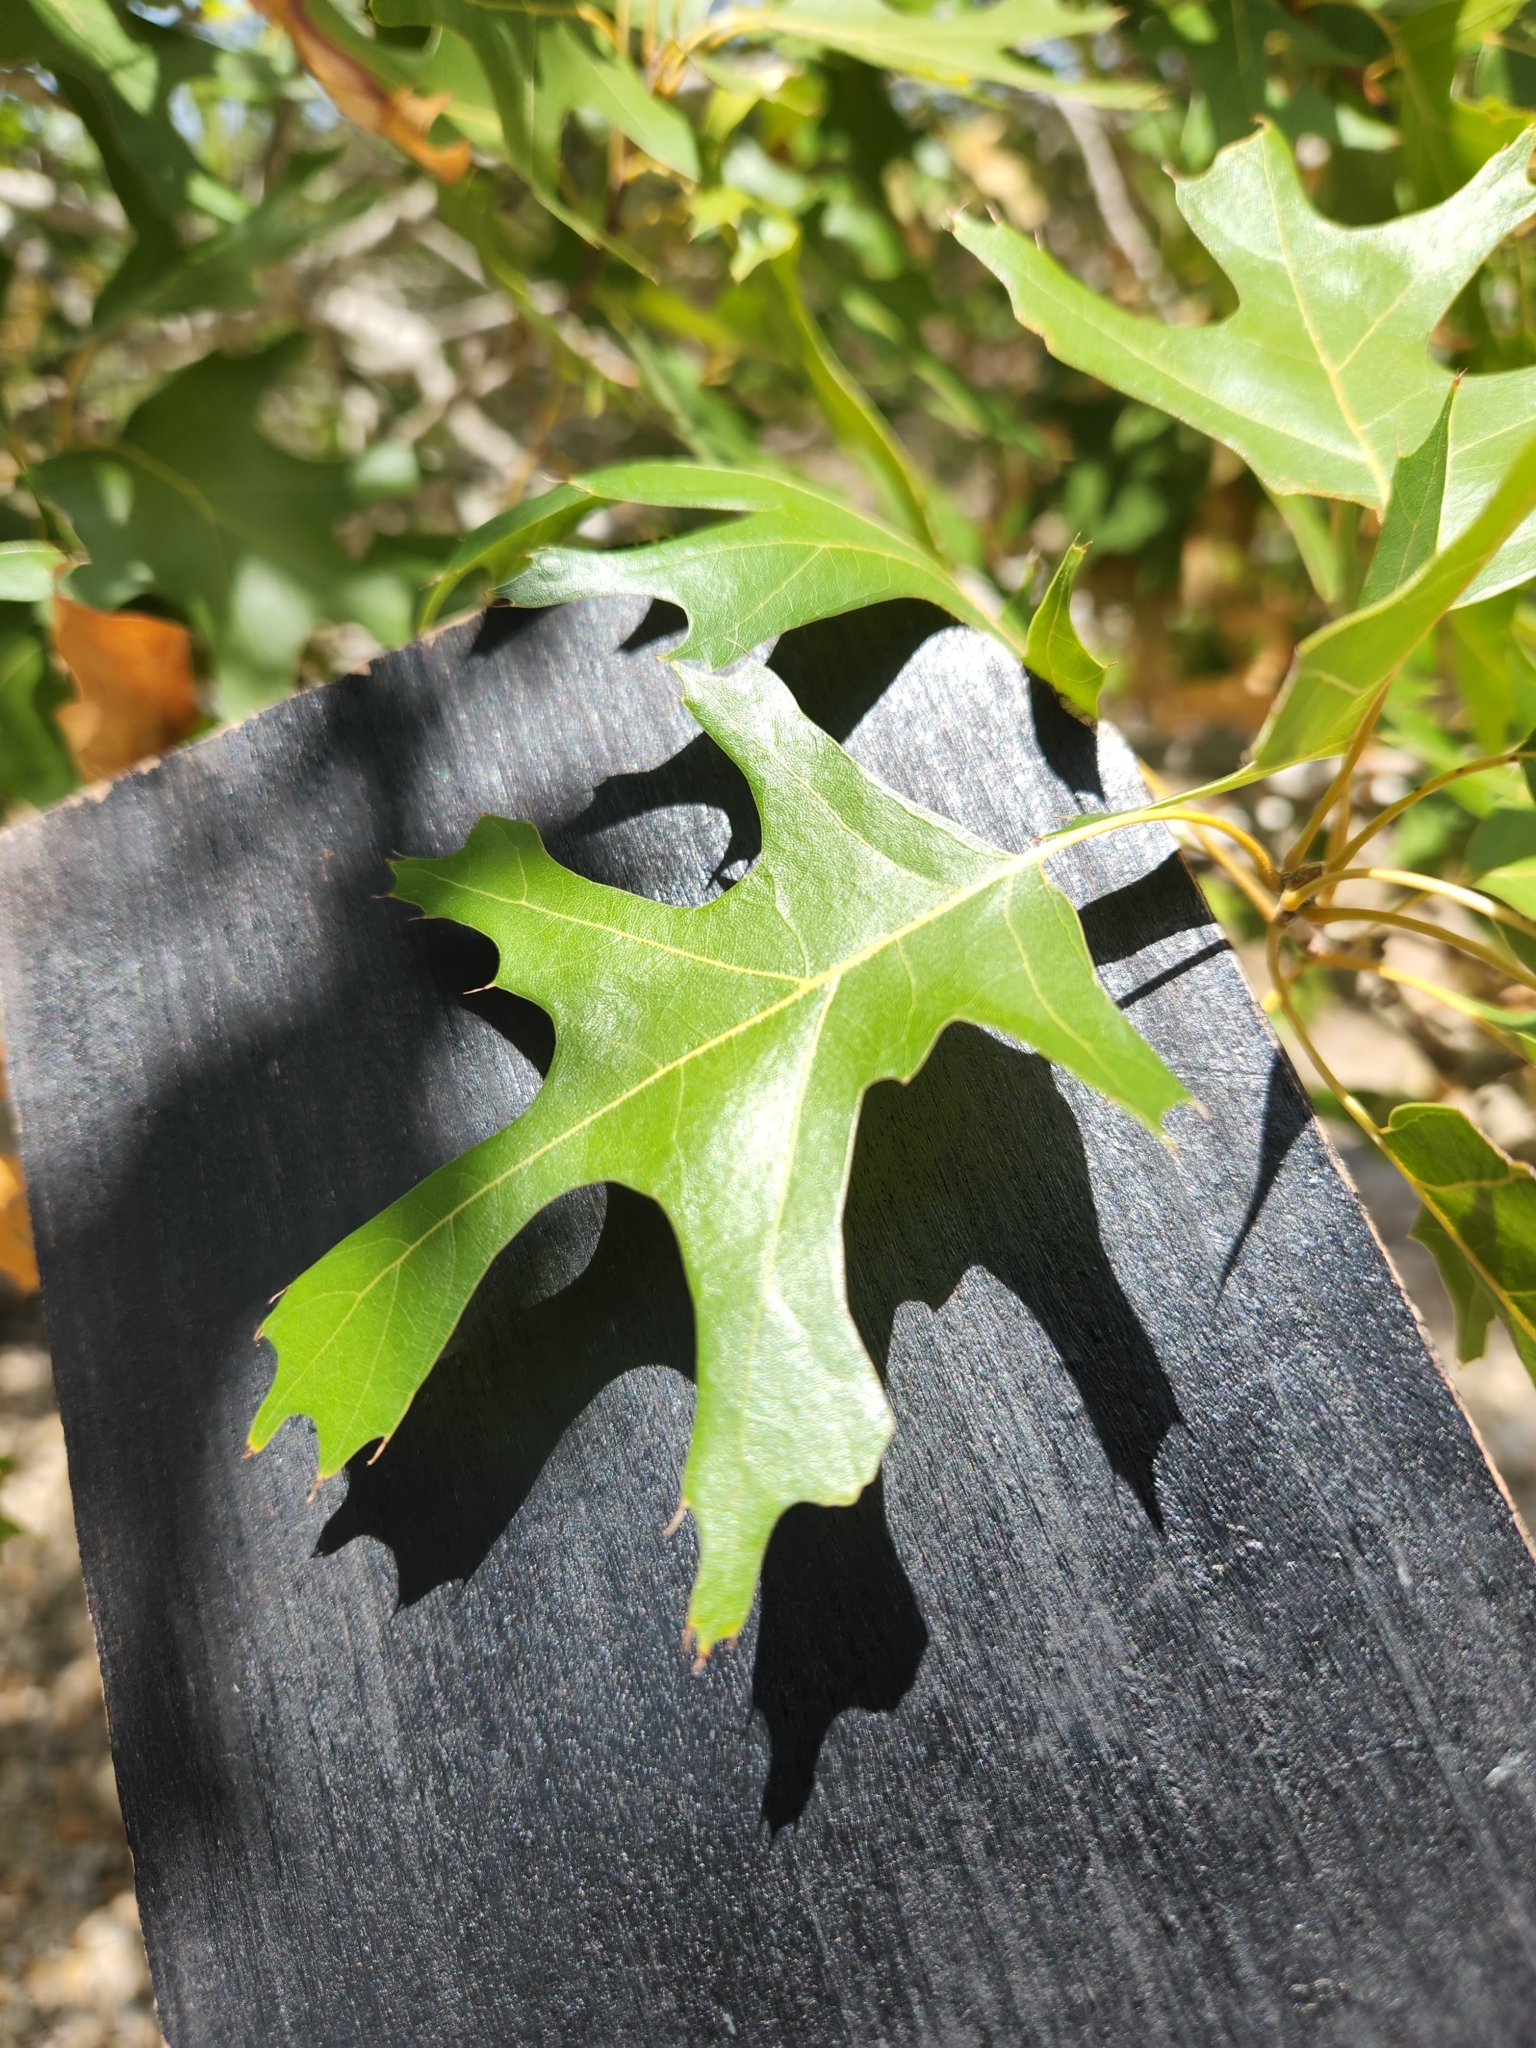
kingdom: Plantae
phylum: Tracheophyta
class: Magnoliopsida
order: Fagales
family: Fagaceae
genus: Quercus
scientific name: Quercus buckleyi
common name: Buckley oak
